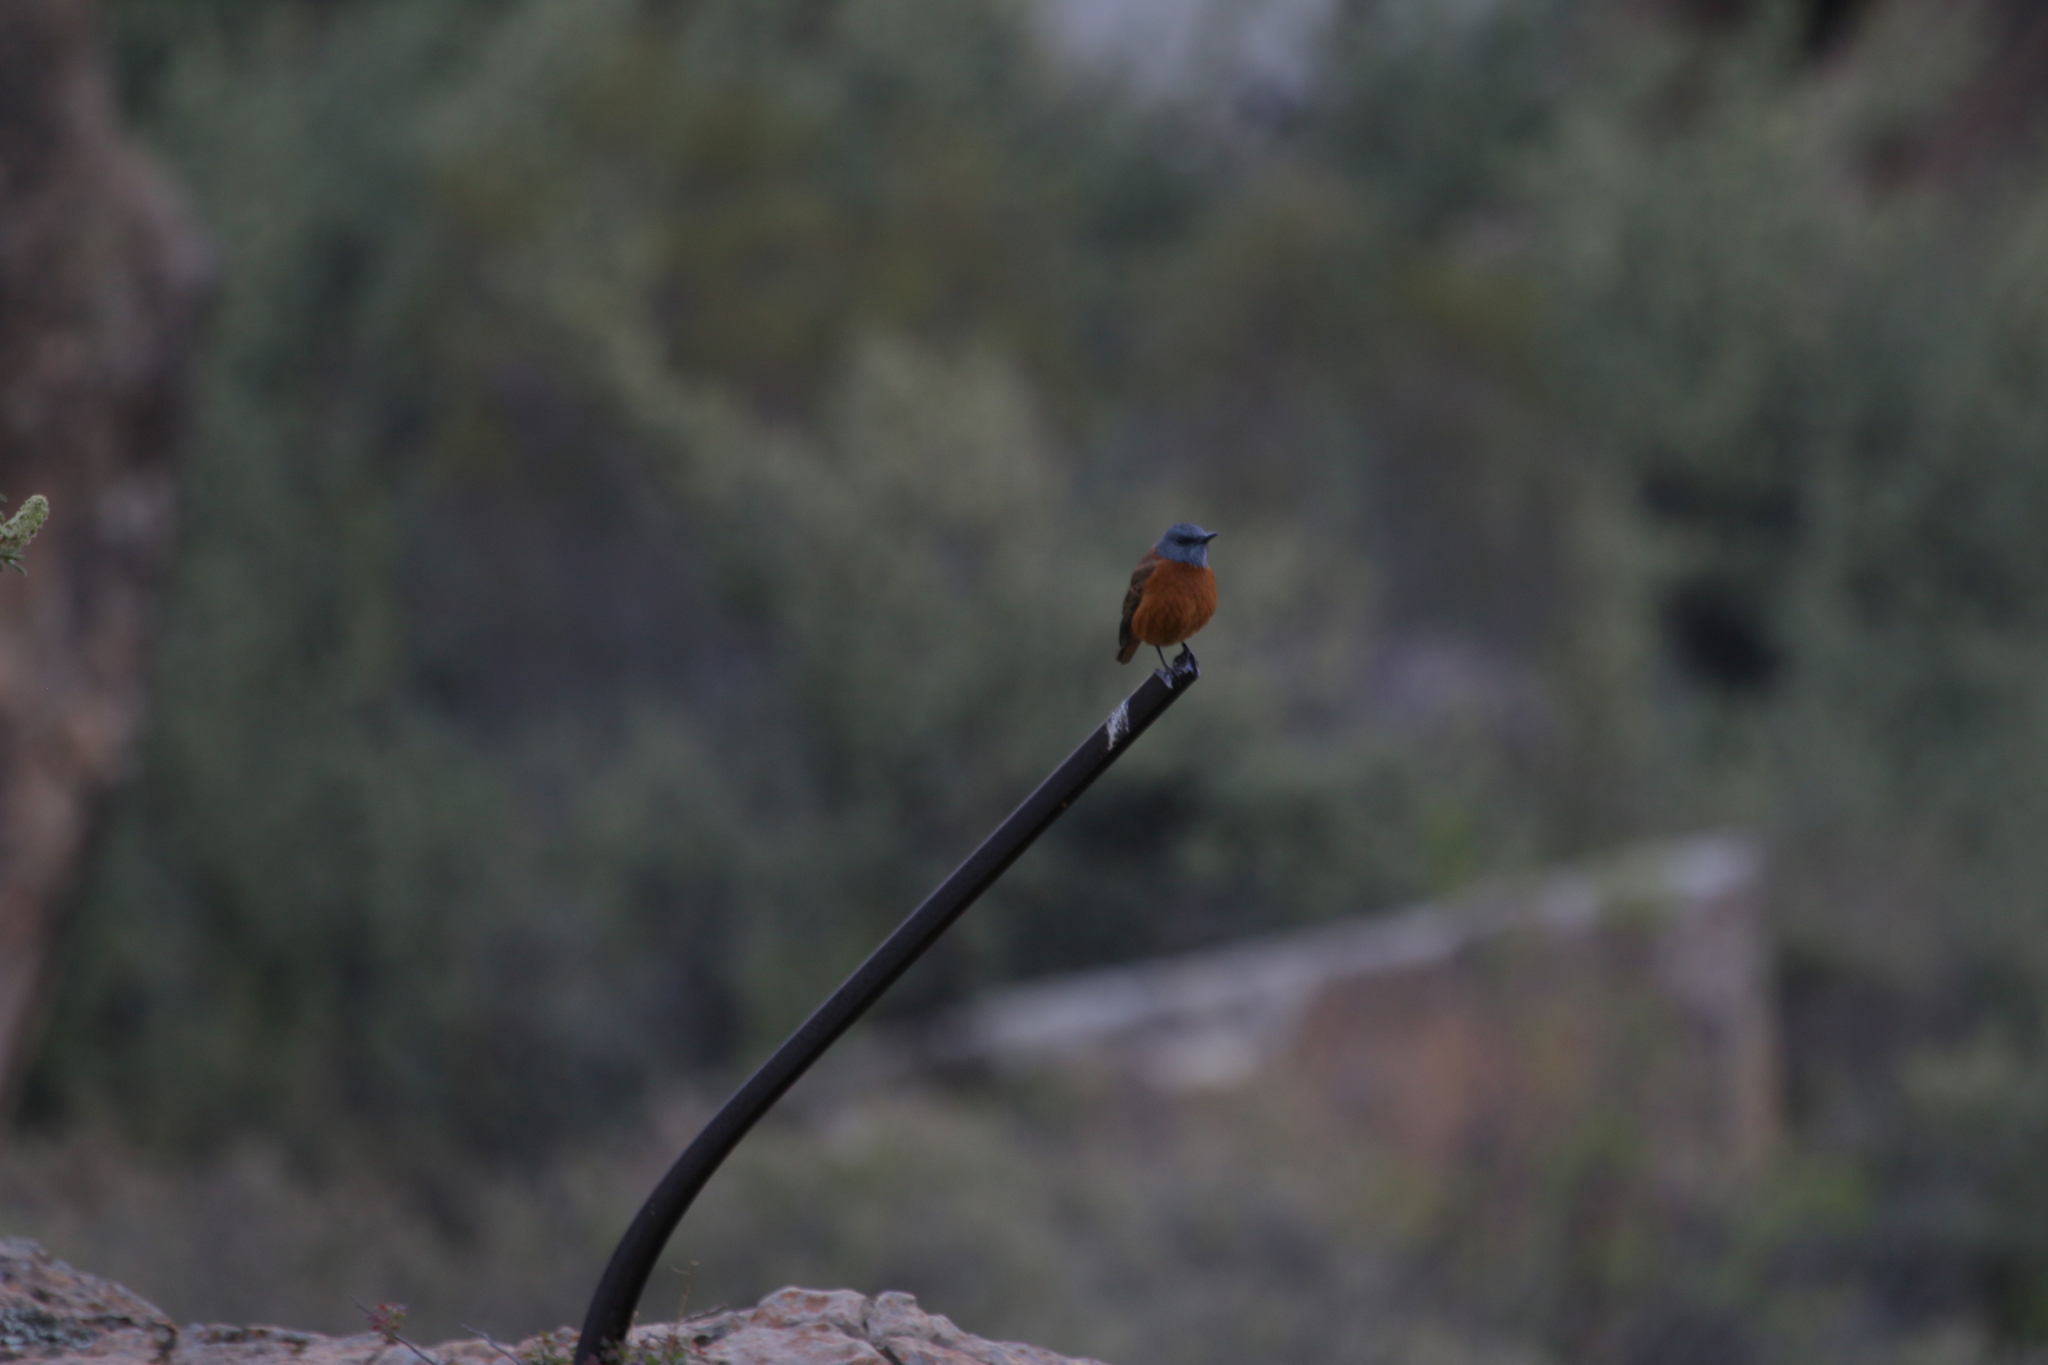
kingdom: Animalia
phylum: Chordata
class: Aves
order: Passeriformes
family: Muscicapidae
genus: Monticola
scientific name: Monticola rupestris
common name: Cape rock thrush
